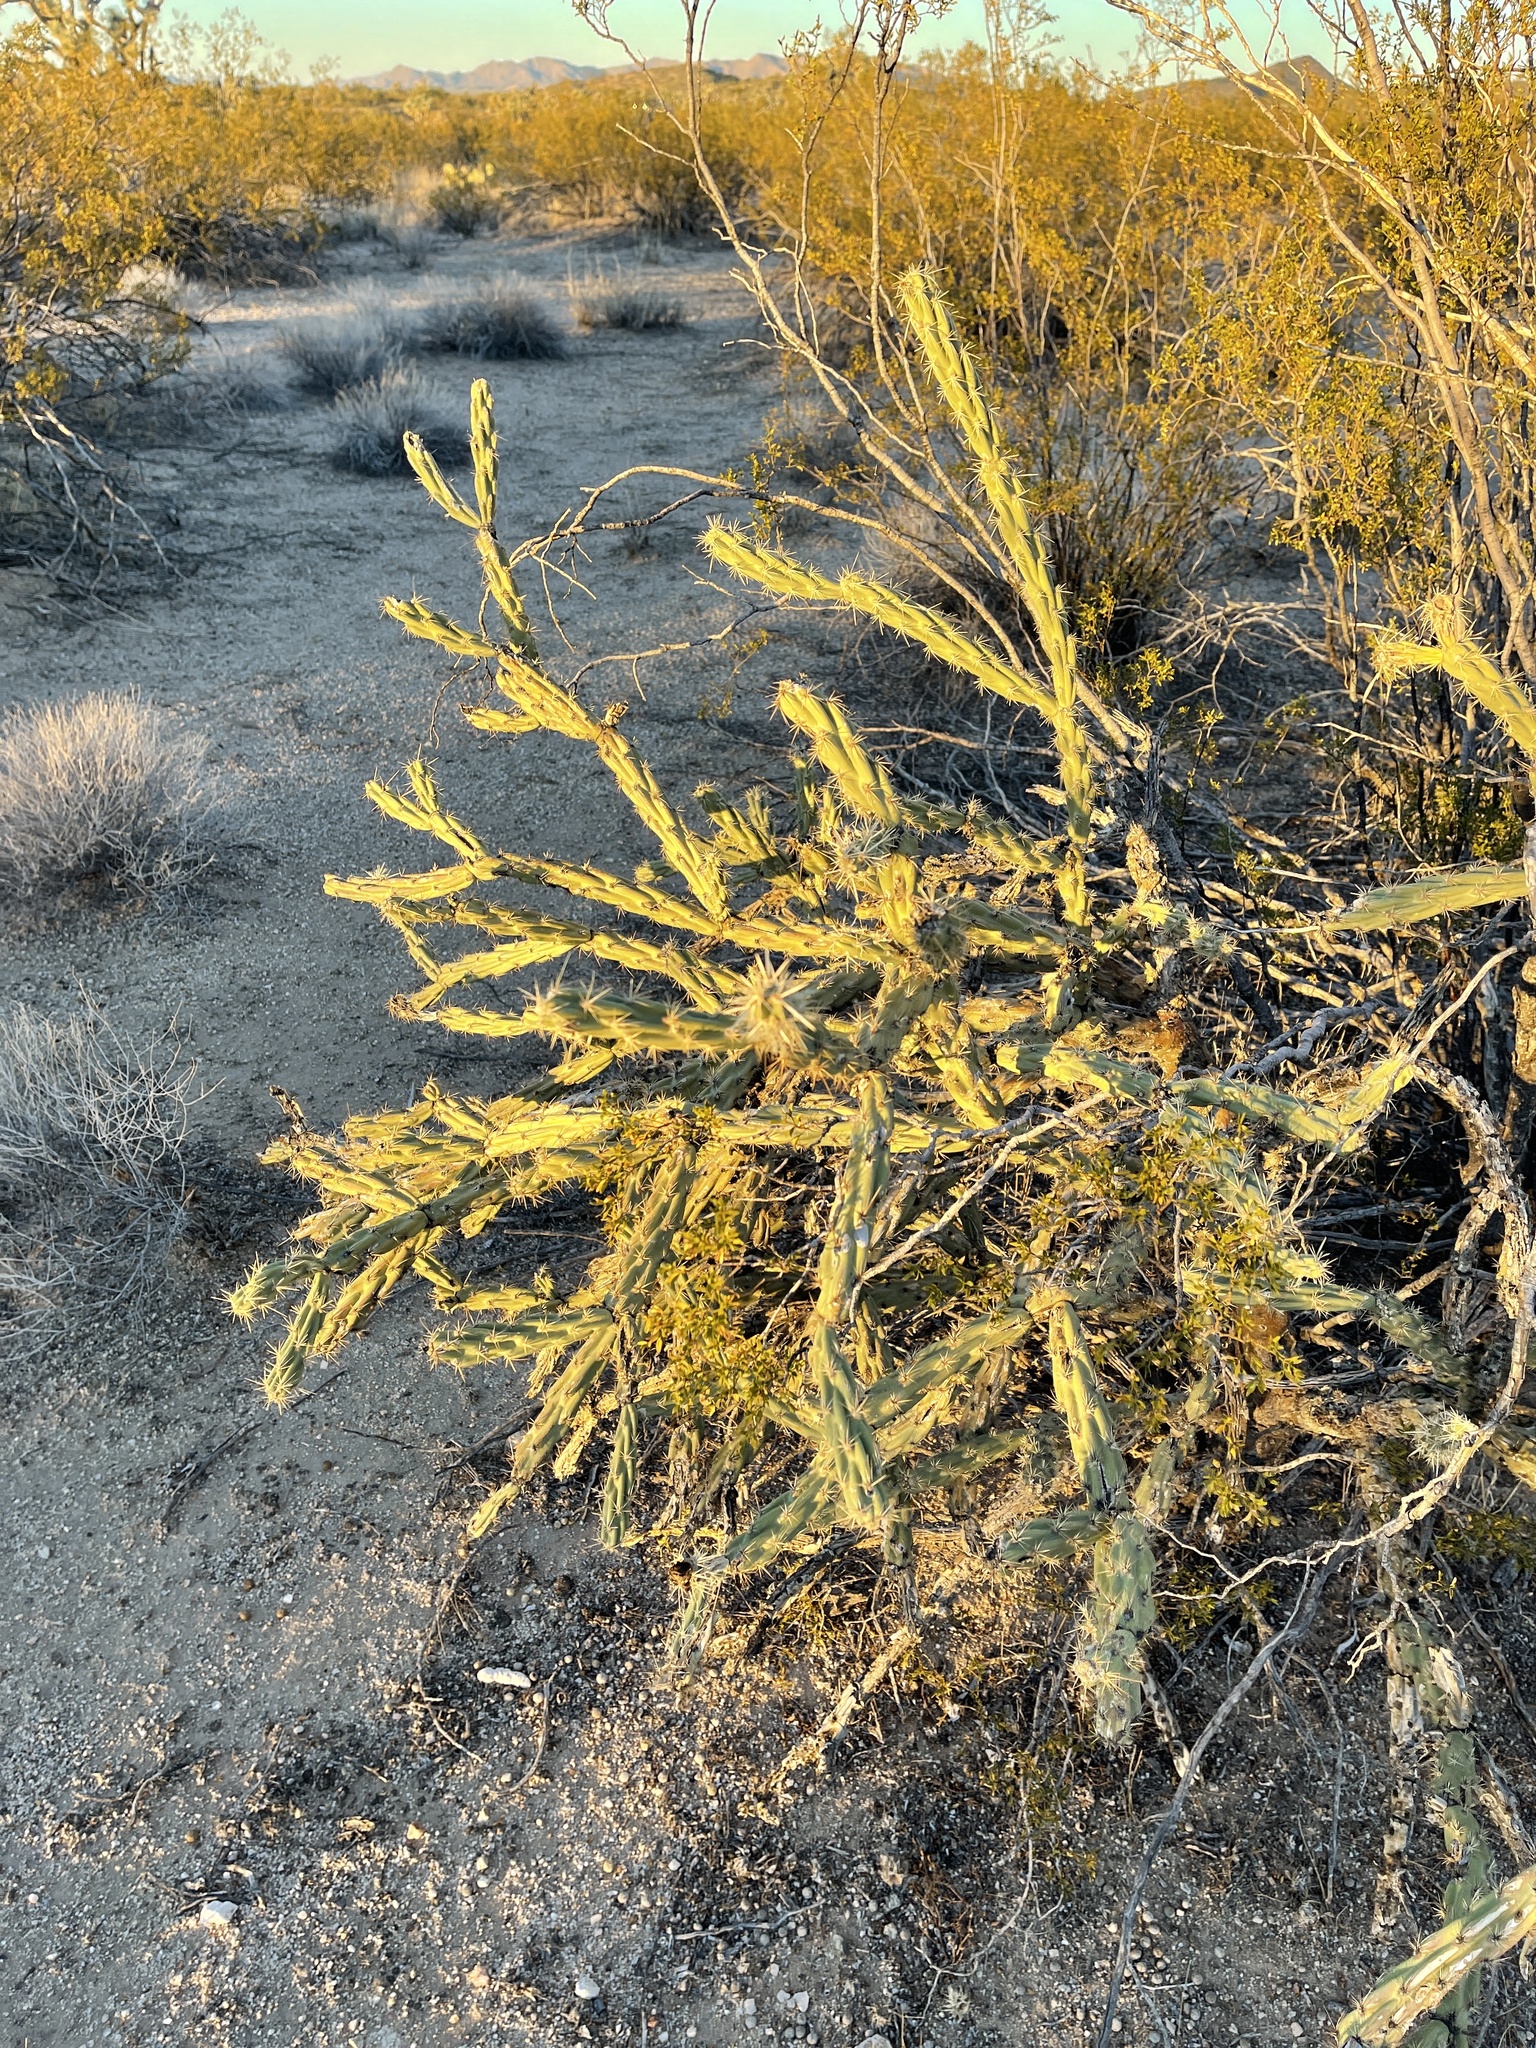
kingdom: Plantae
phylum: Tracheophyta
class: Magnoliopsida
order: Caryophyllales
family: Cactaceae
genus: Cylindropuntia
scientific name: Cylindropuntia acanthocarpa
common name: Buckhorn cholla
